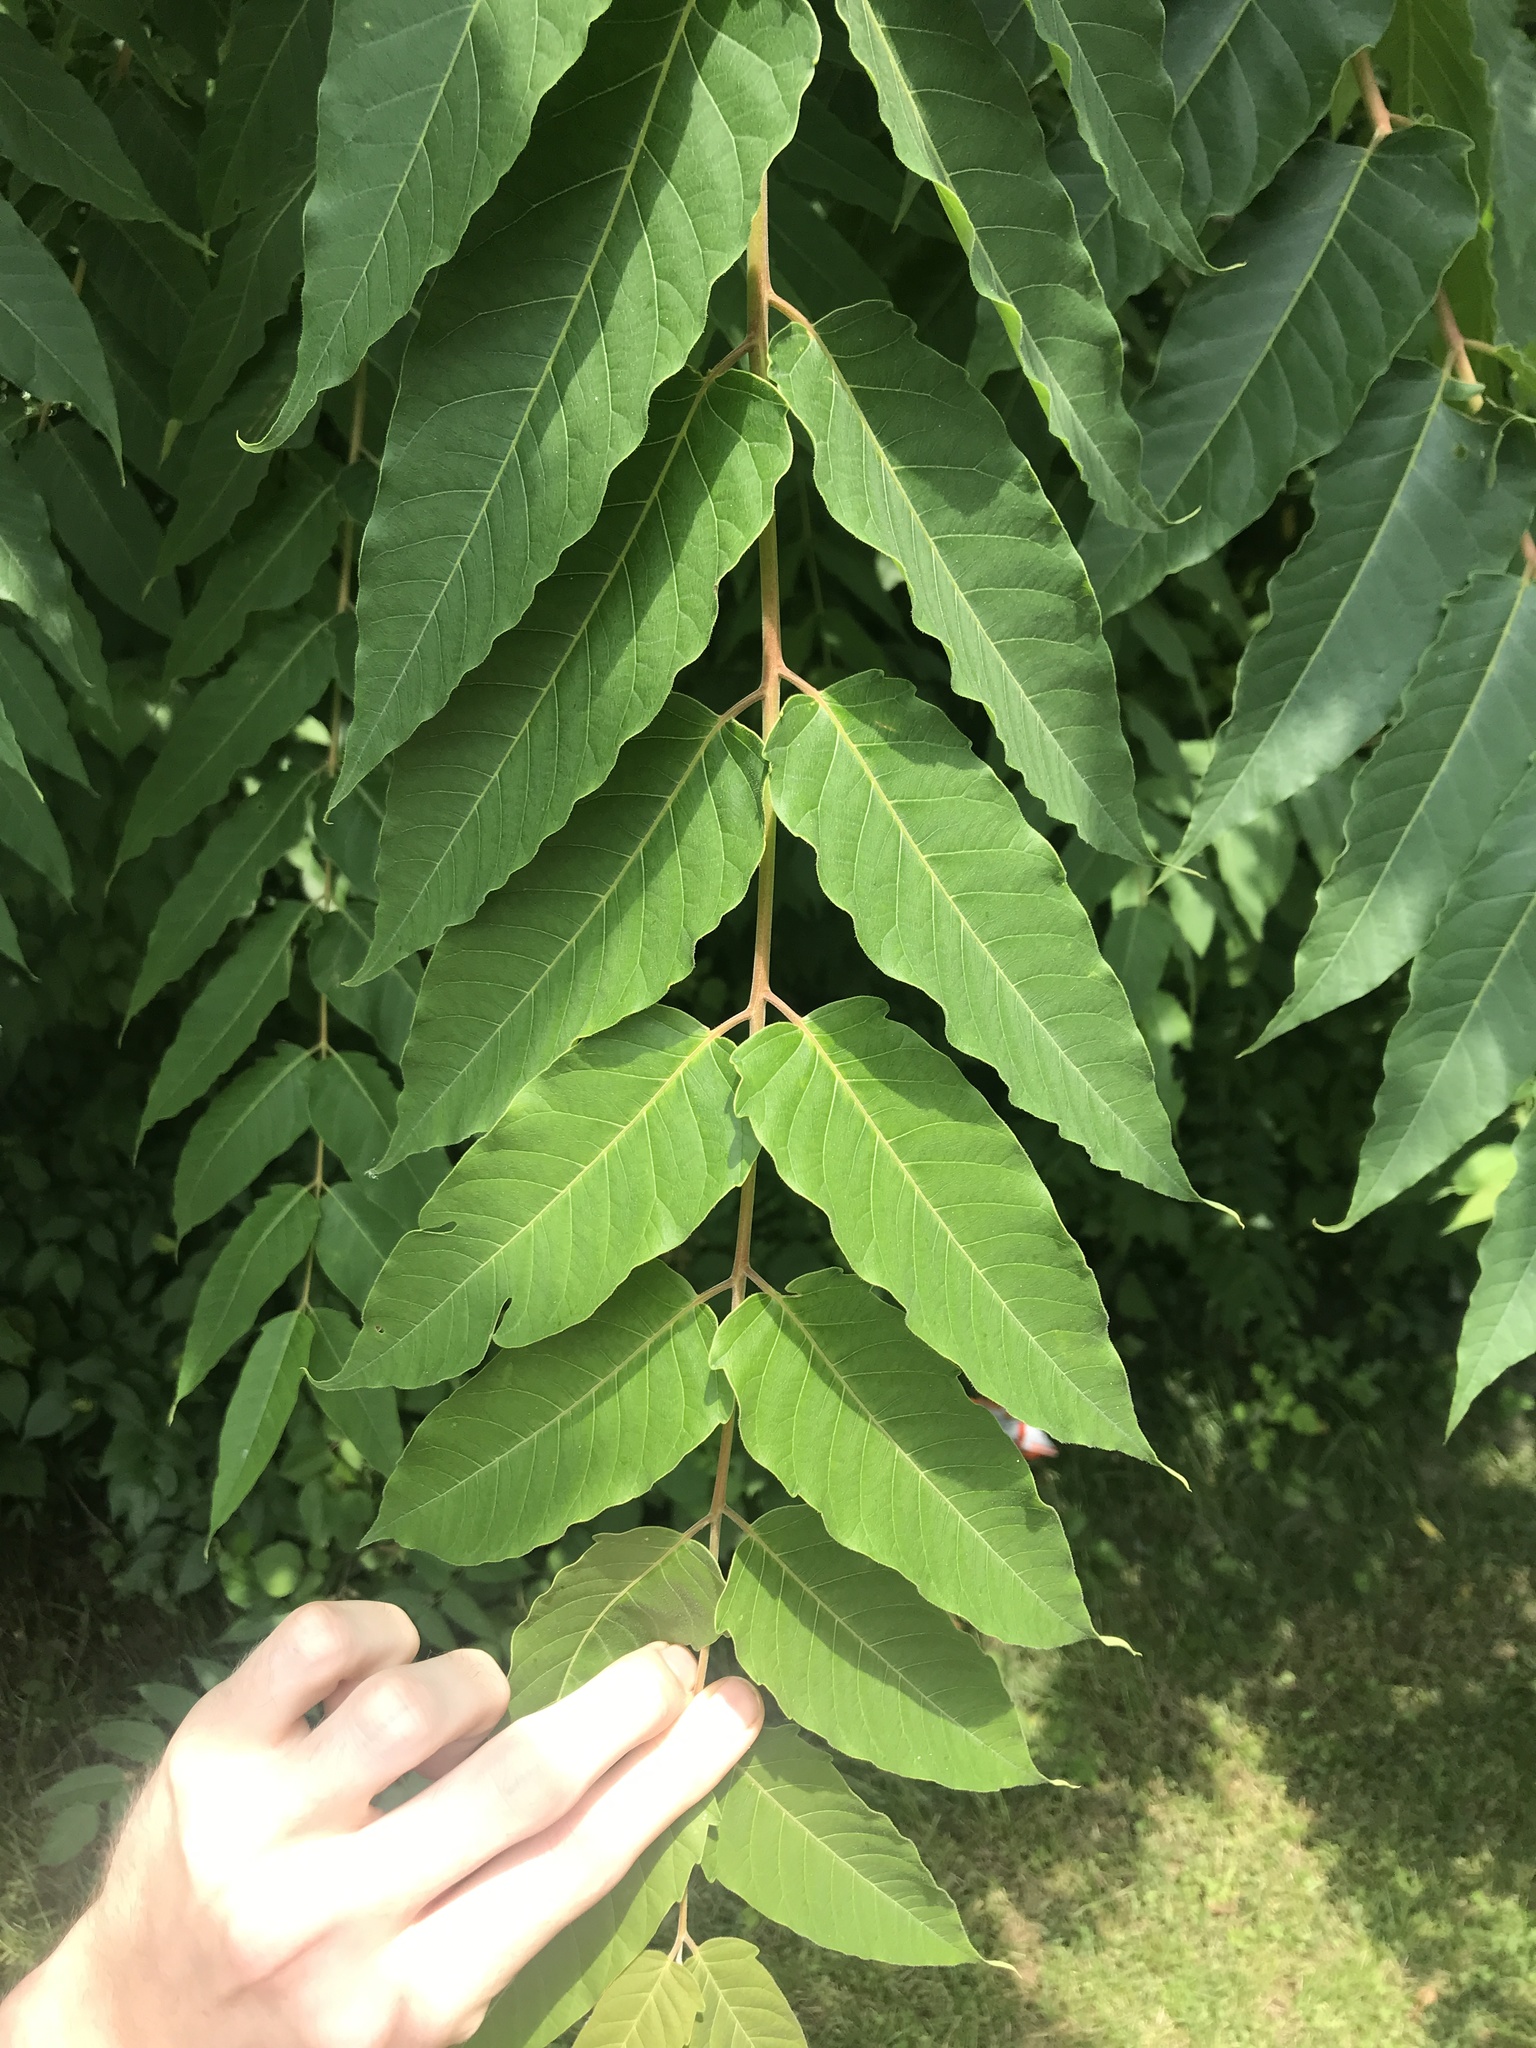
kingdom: Plantae
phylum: Tracheophyta
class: Magnoliopsida
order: Sapindales
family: Simaroubaceae
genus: Ailanthus
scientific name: Ailanthus altissima
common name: Tree-of-heaven
